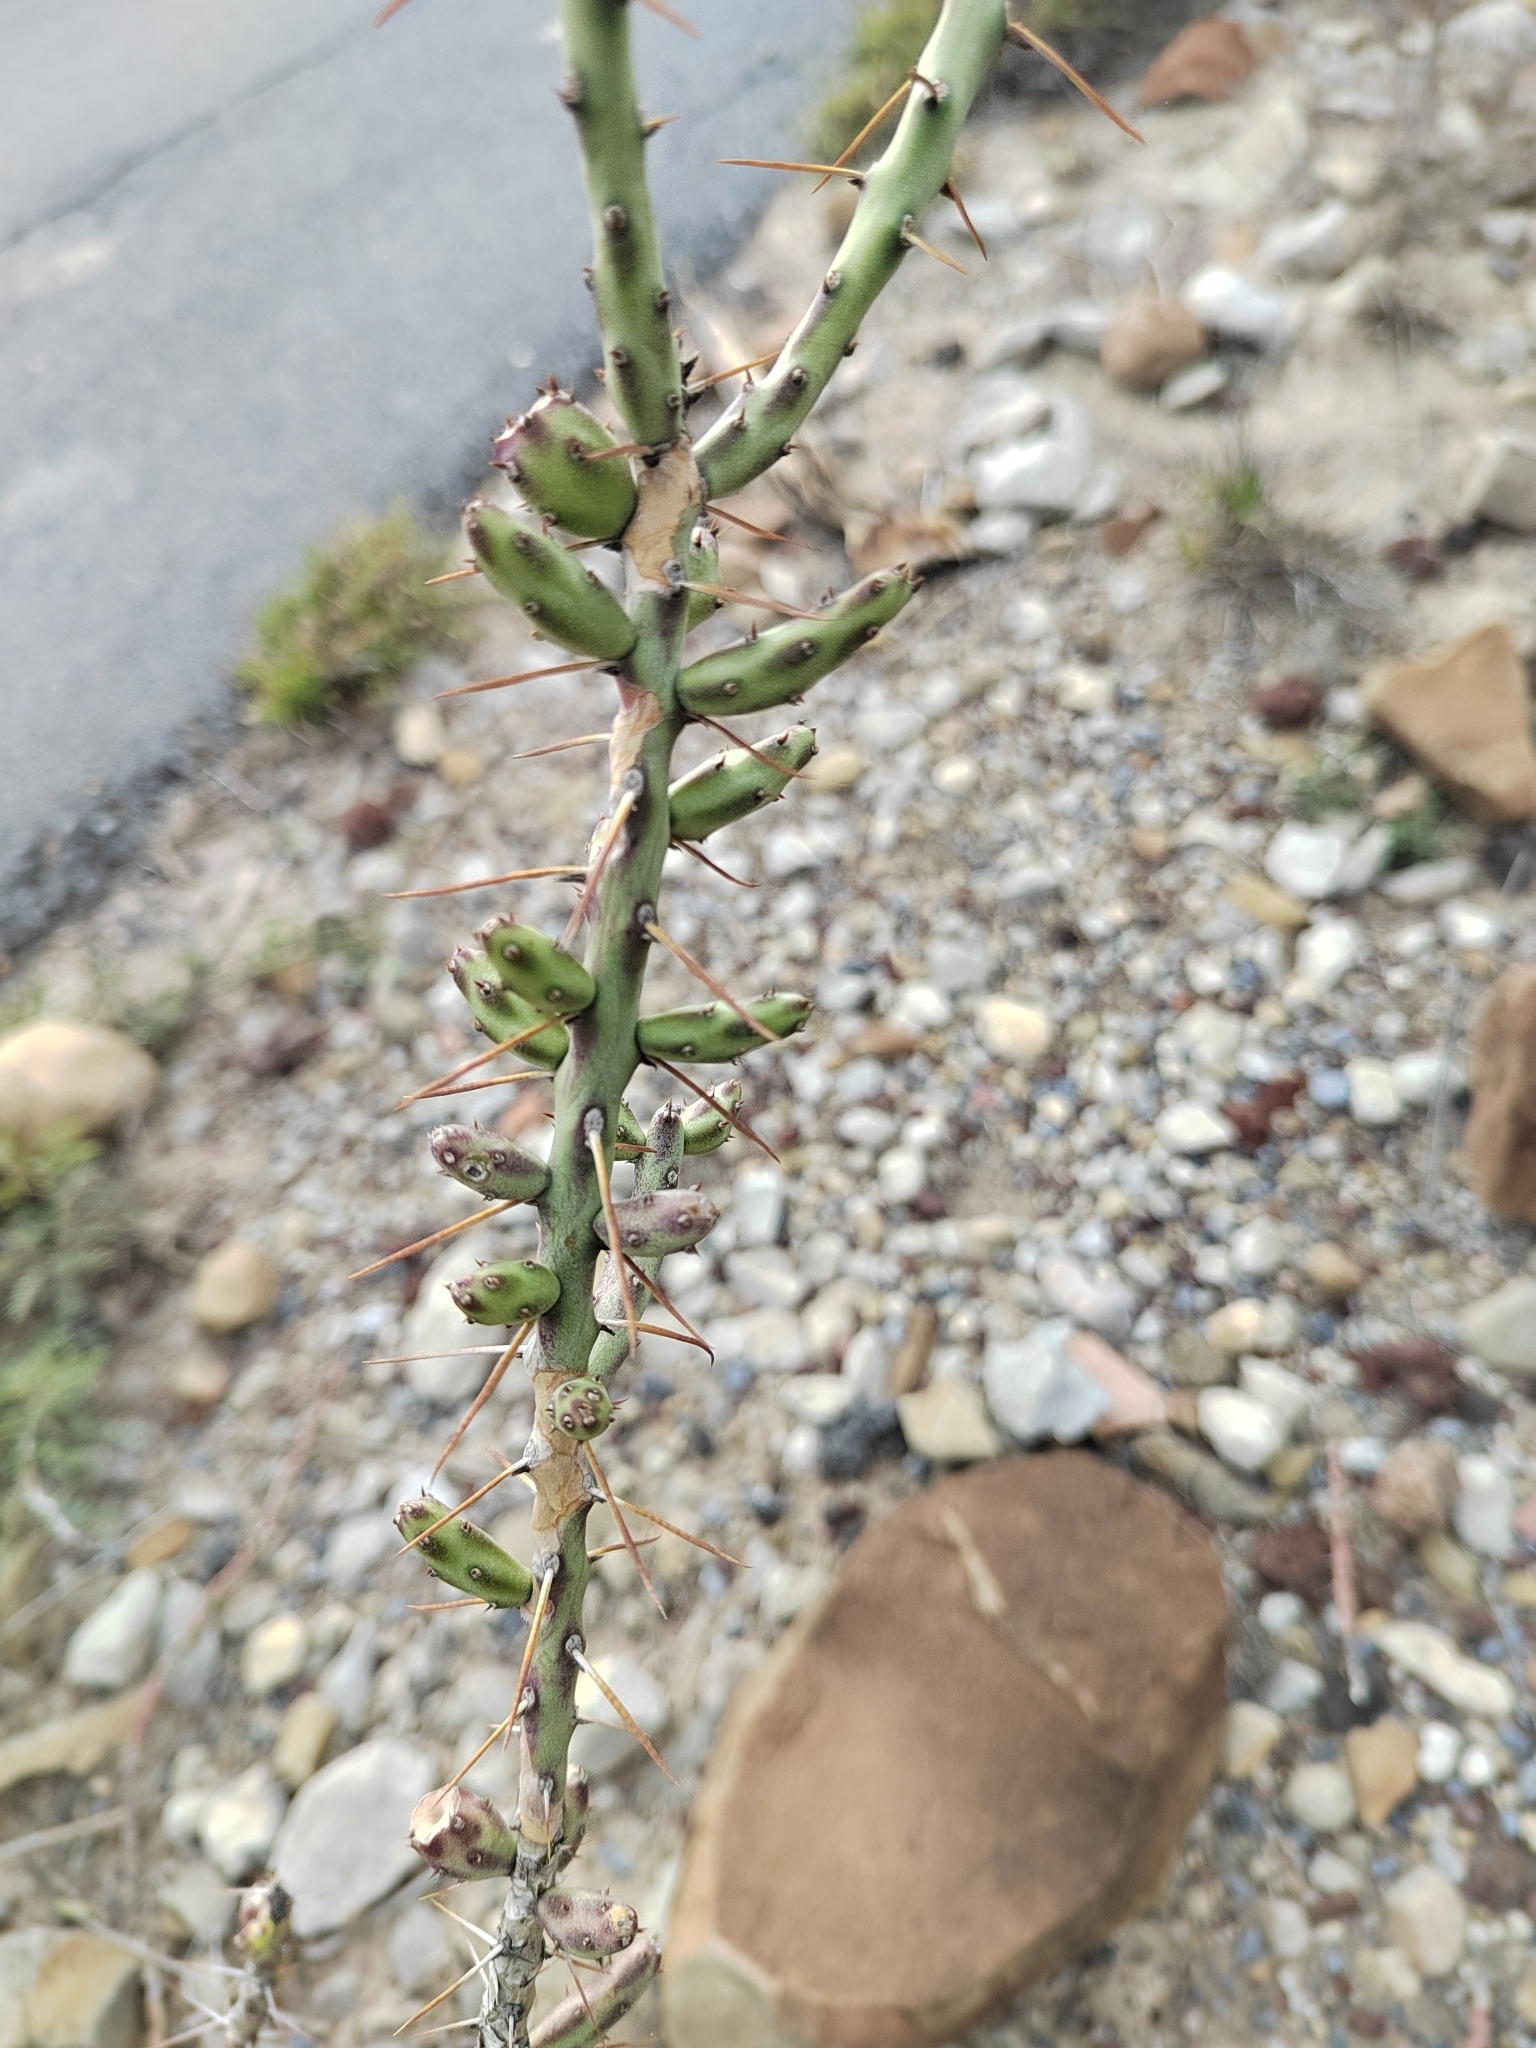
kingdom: Plantae
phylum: Tracheophyta
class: Magnoliopsida
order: Caryophyllales
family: Cactaceae
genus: Cylindropuntia
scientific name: Cylindropuntia leptocaulis
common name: Christmas cactus
